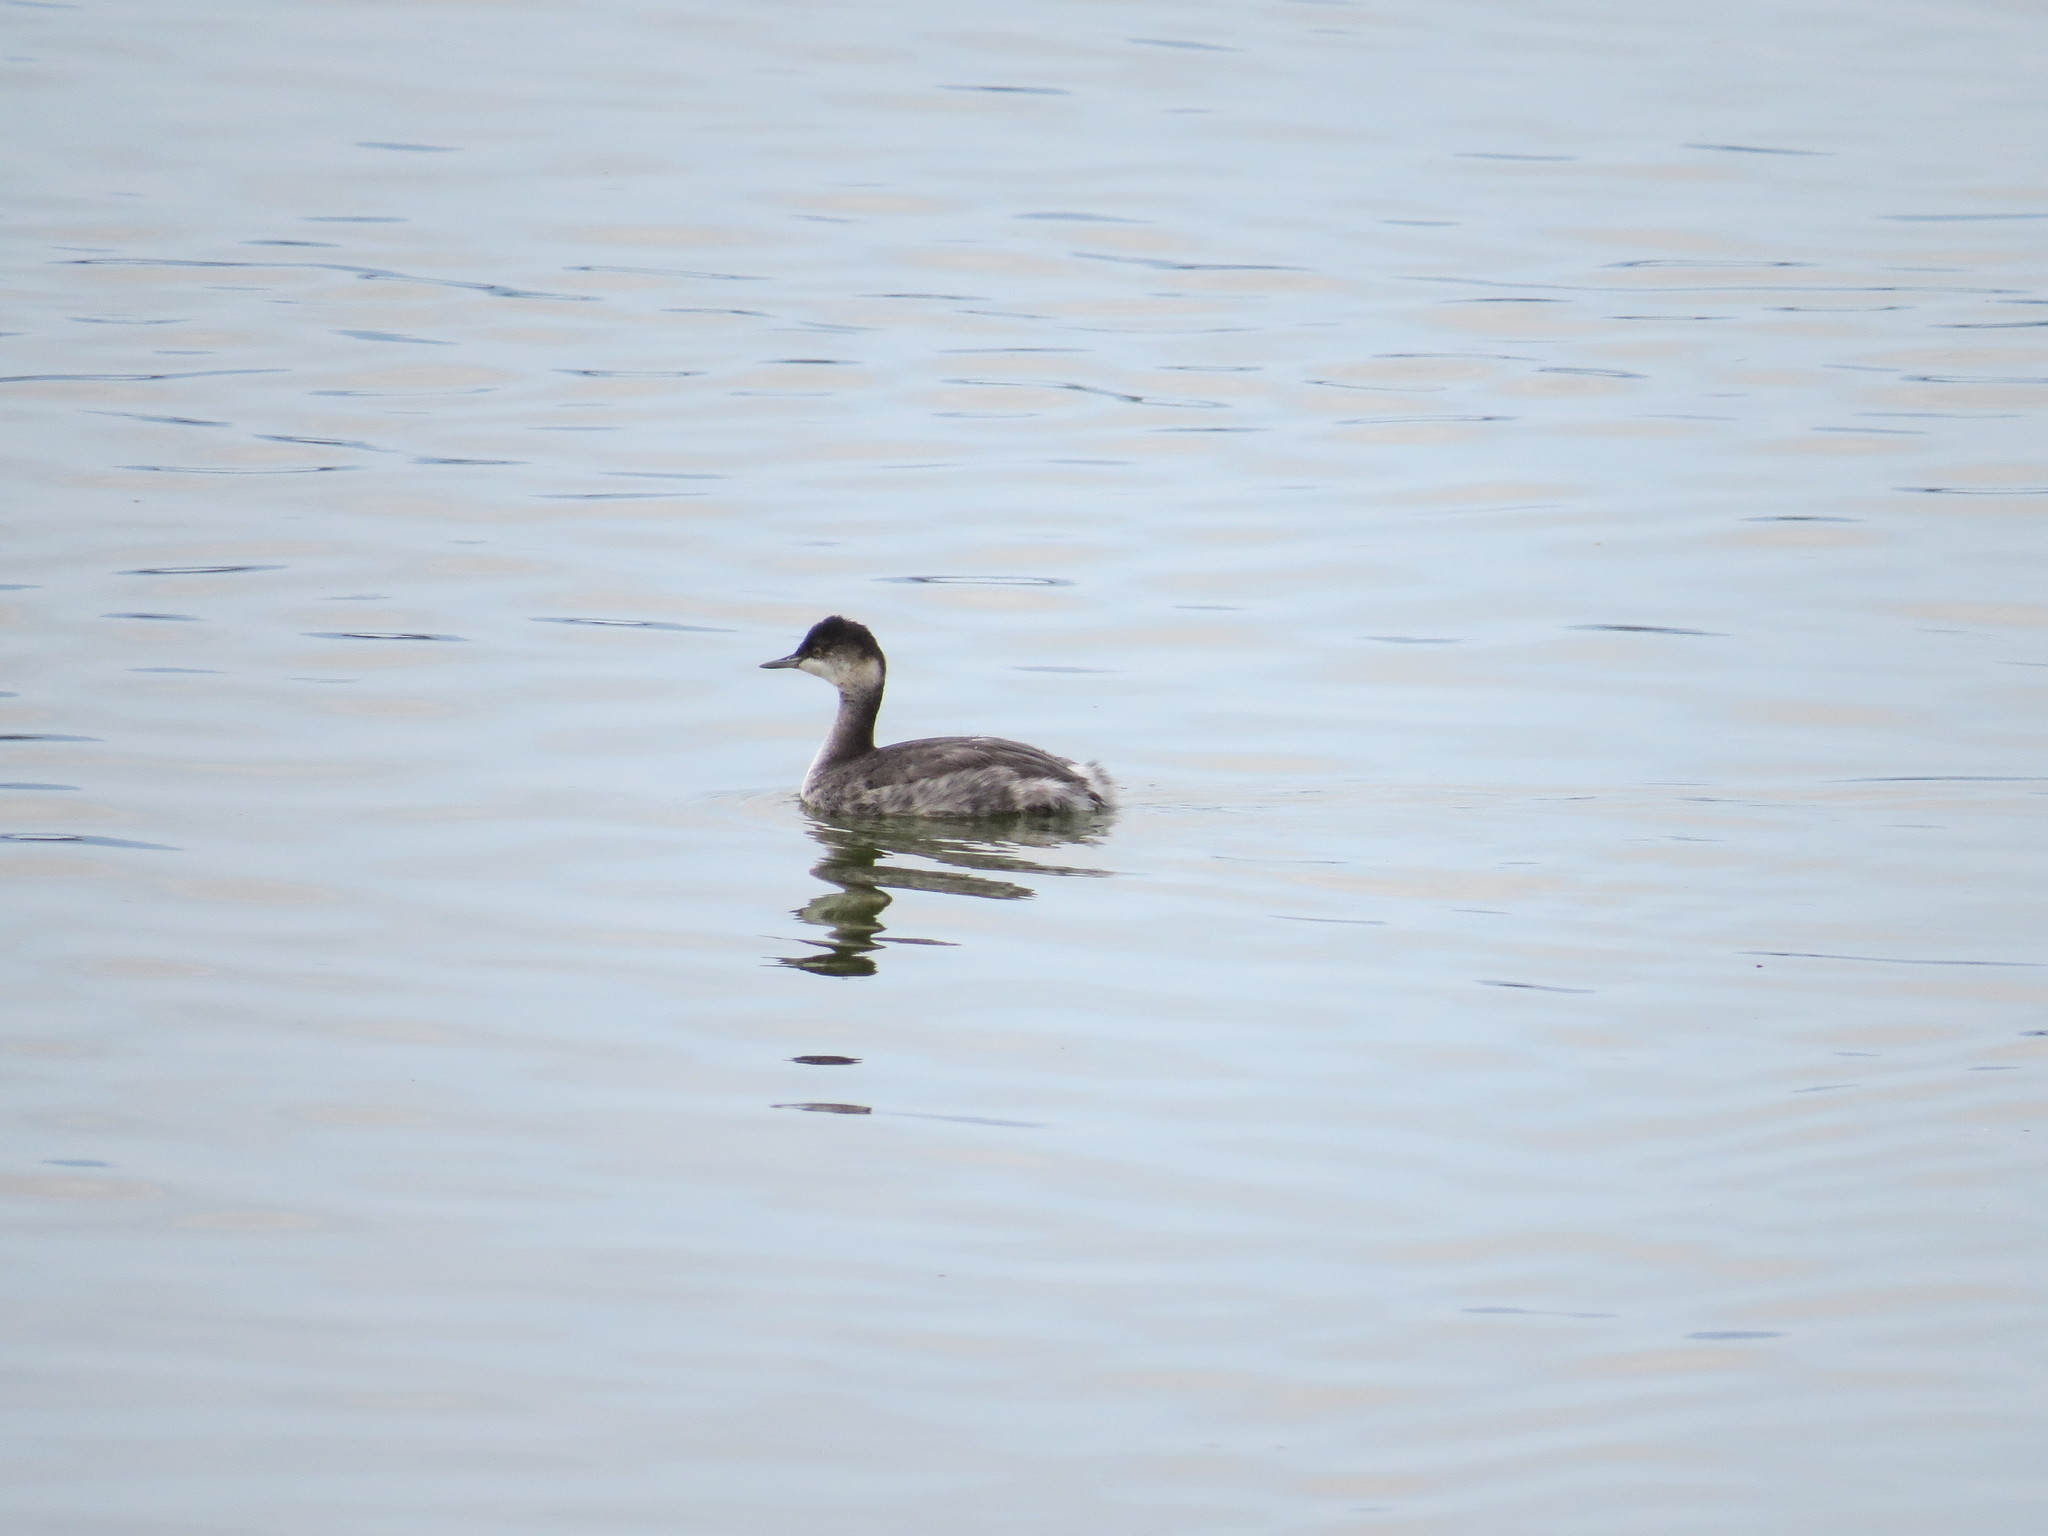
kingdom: Animalia
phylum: Chordata
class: Aves
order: Podicipediformes
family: Podicipedidae
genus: Podiceps
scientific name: Podiceps nigricollis
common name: Black-necked grebe
